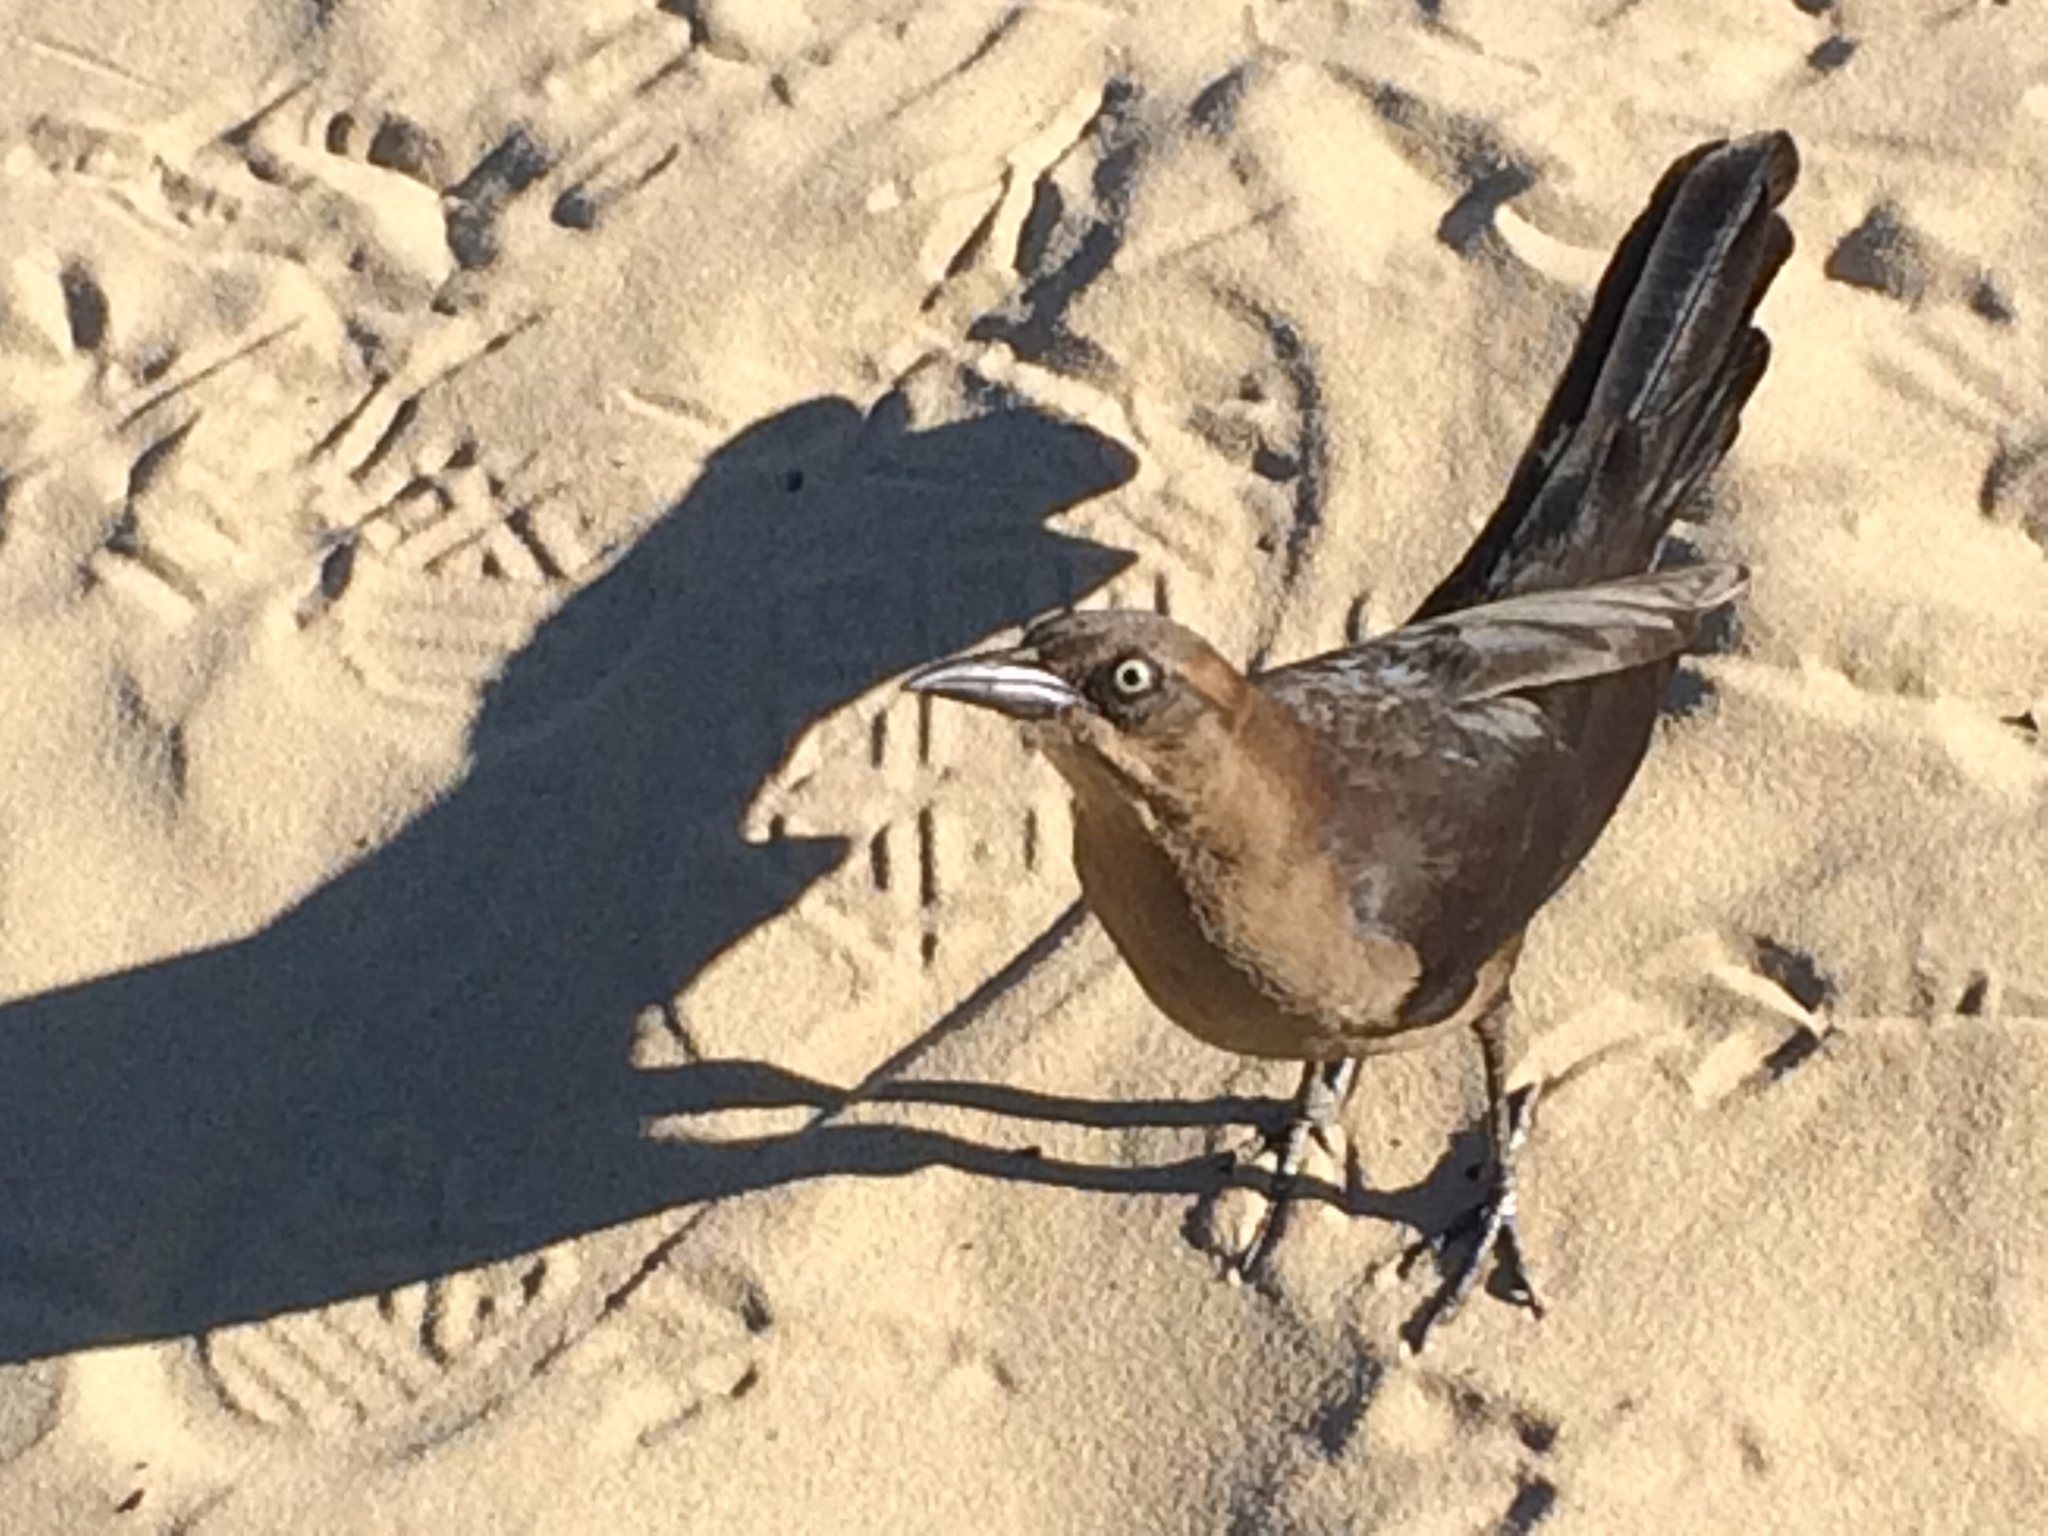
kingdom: Animalia
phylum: Chordata
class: Aves
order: Passeriformes
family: Icteridae
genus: Quiscalus
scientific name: Quiscalus mexicanus
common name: Great-tailed grackle
